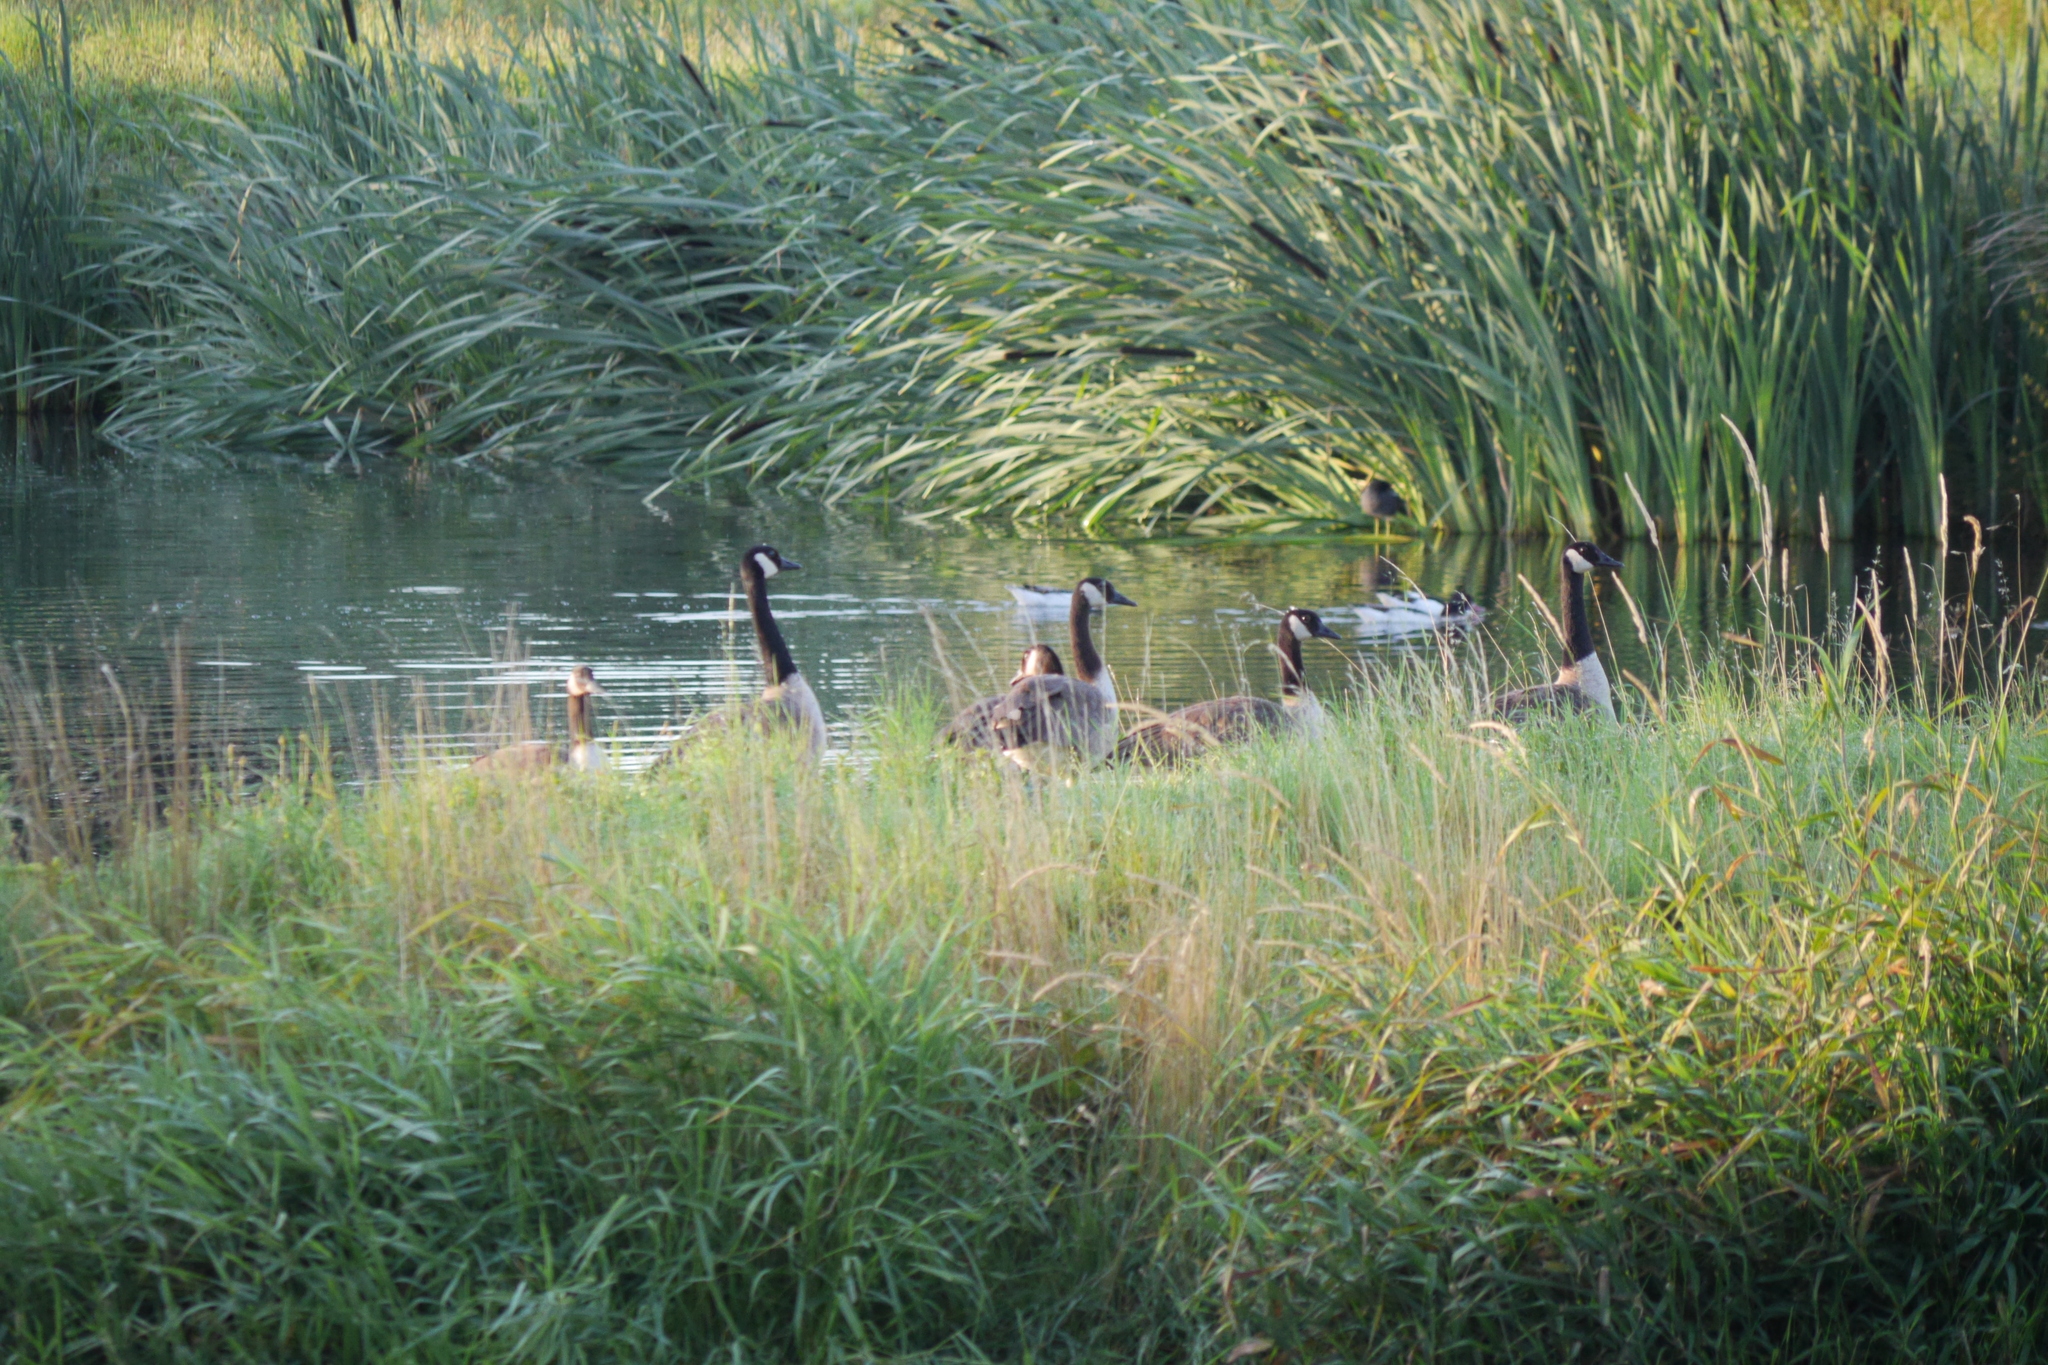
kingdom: Animalia
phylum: Chordata
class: Aves
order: Anseriformes
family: Anatidae
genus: Branta
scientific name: Branta canadensis
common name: Canada goose
